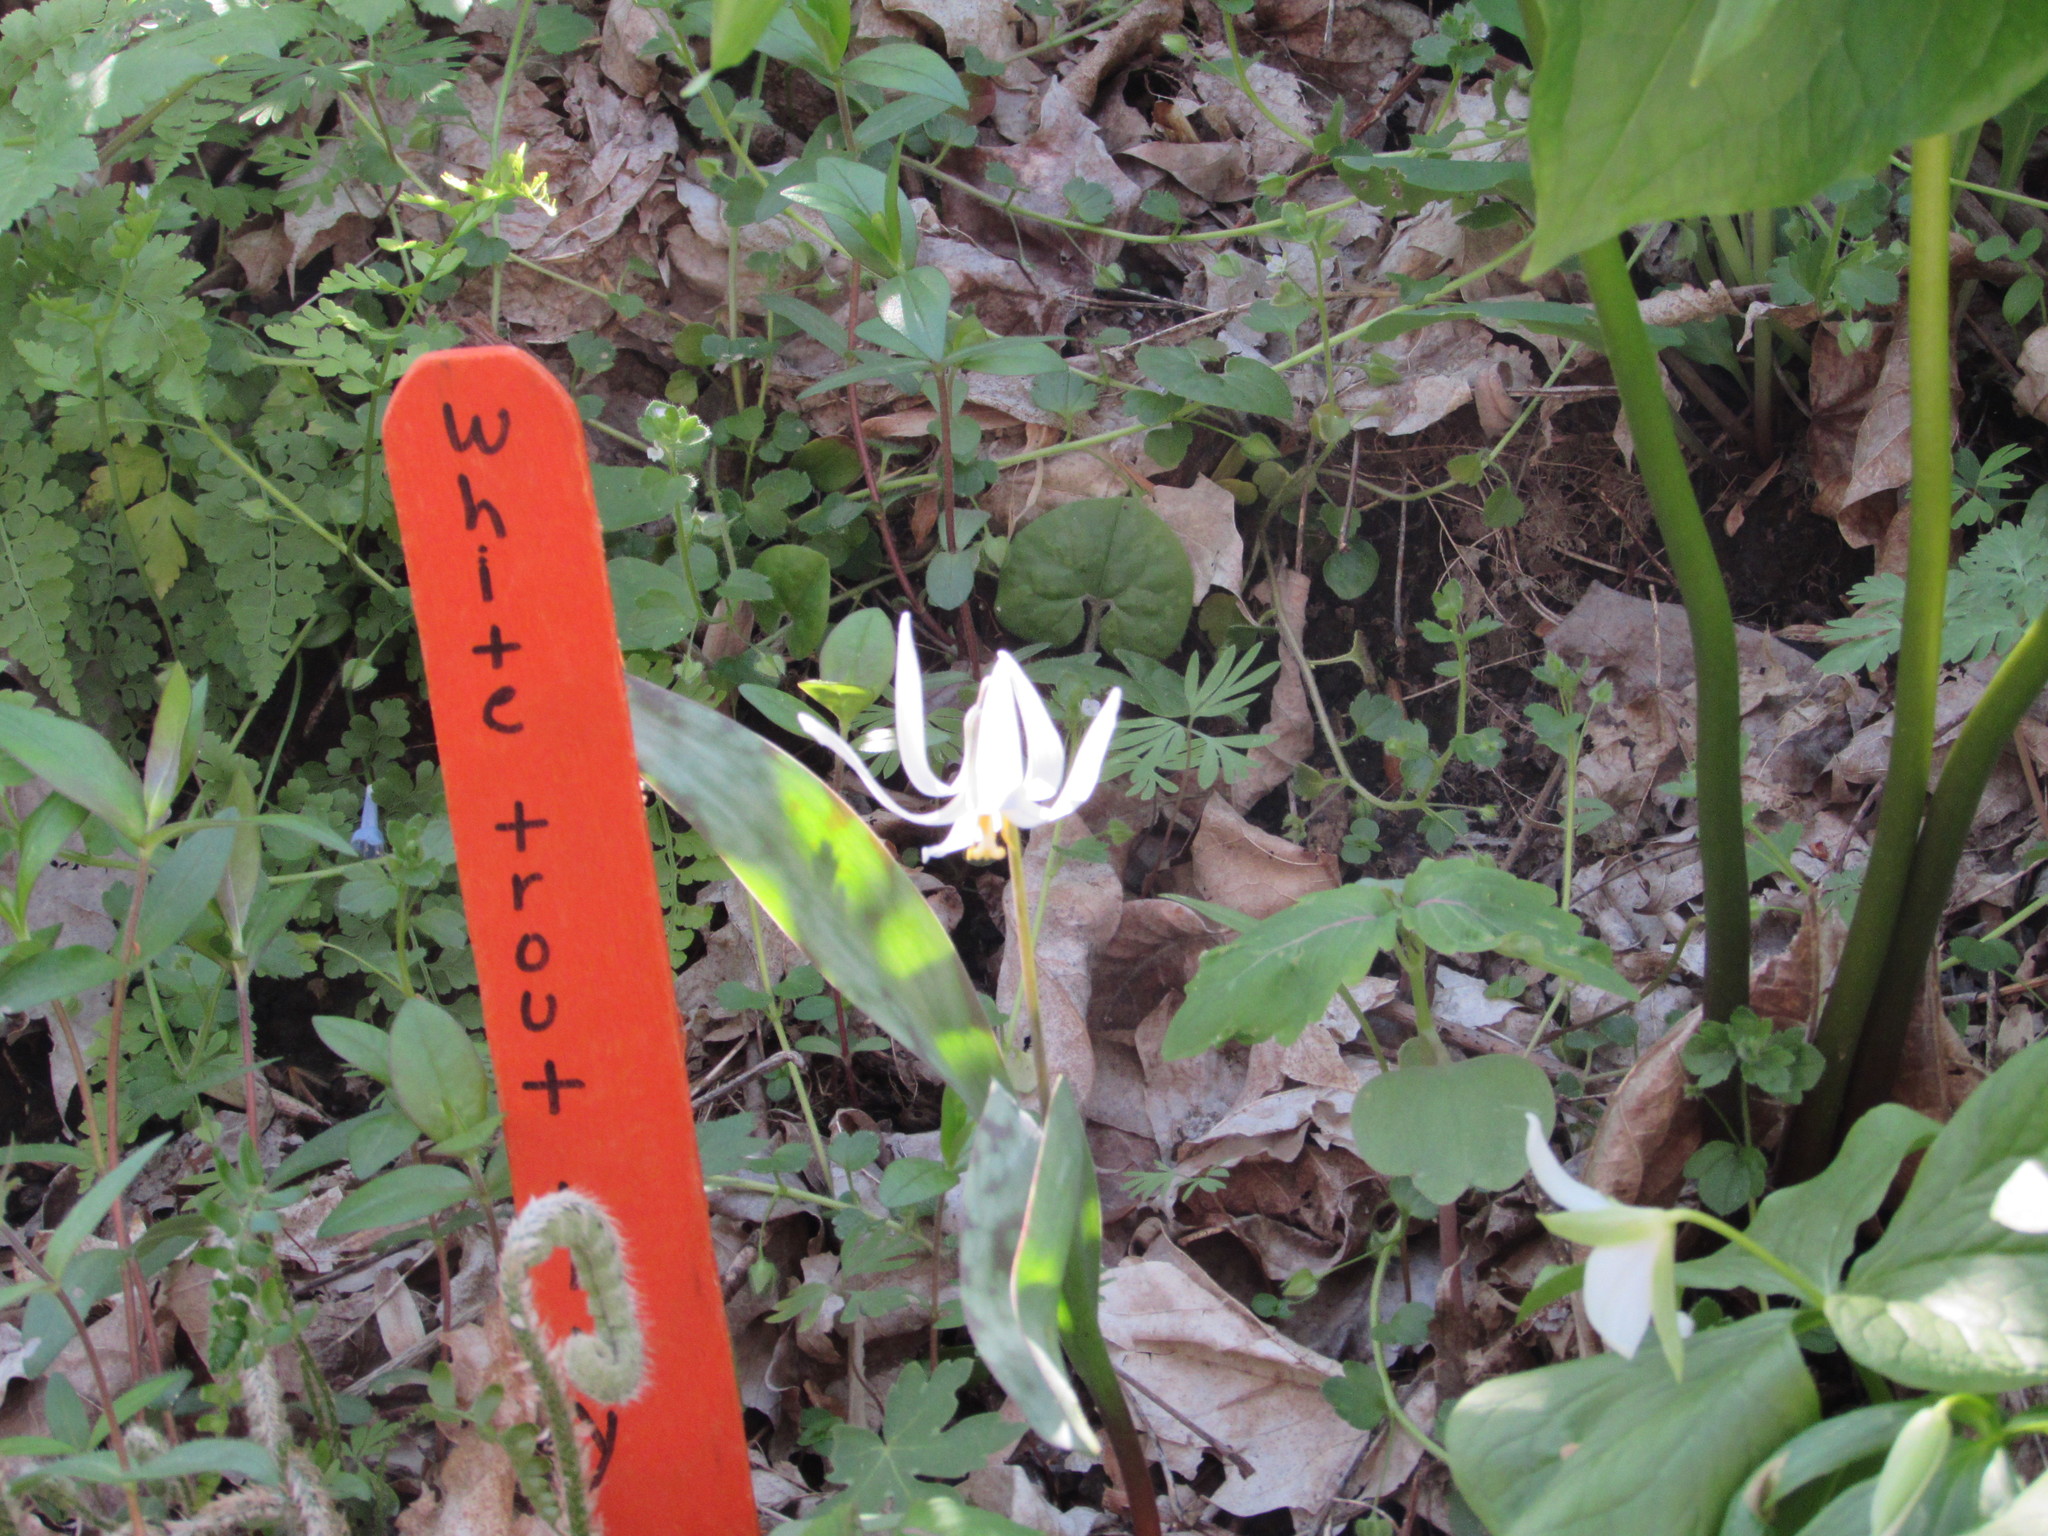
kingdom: Plantae
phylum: Tracheophyta
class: Liliopsida
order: Liliales
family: Liliaceae
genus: Erythronium
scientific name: Erythronium albidum
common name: White trout-lily
